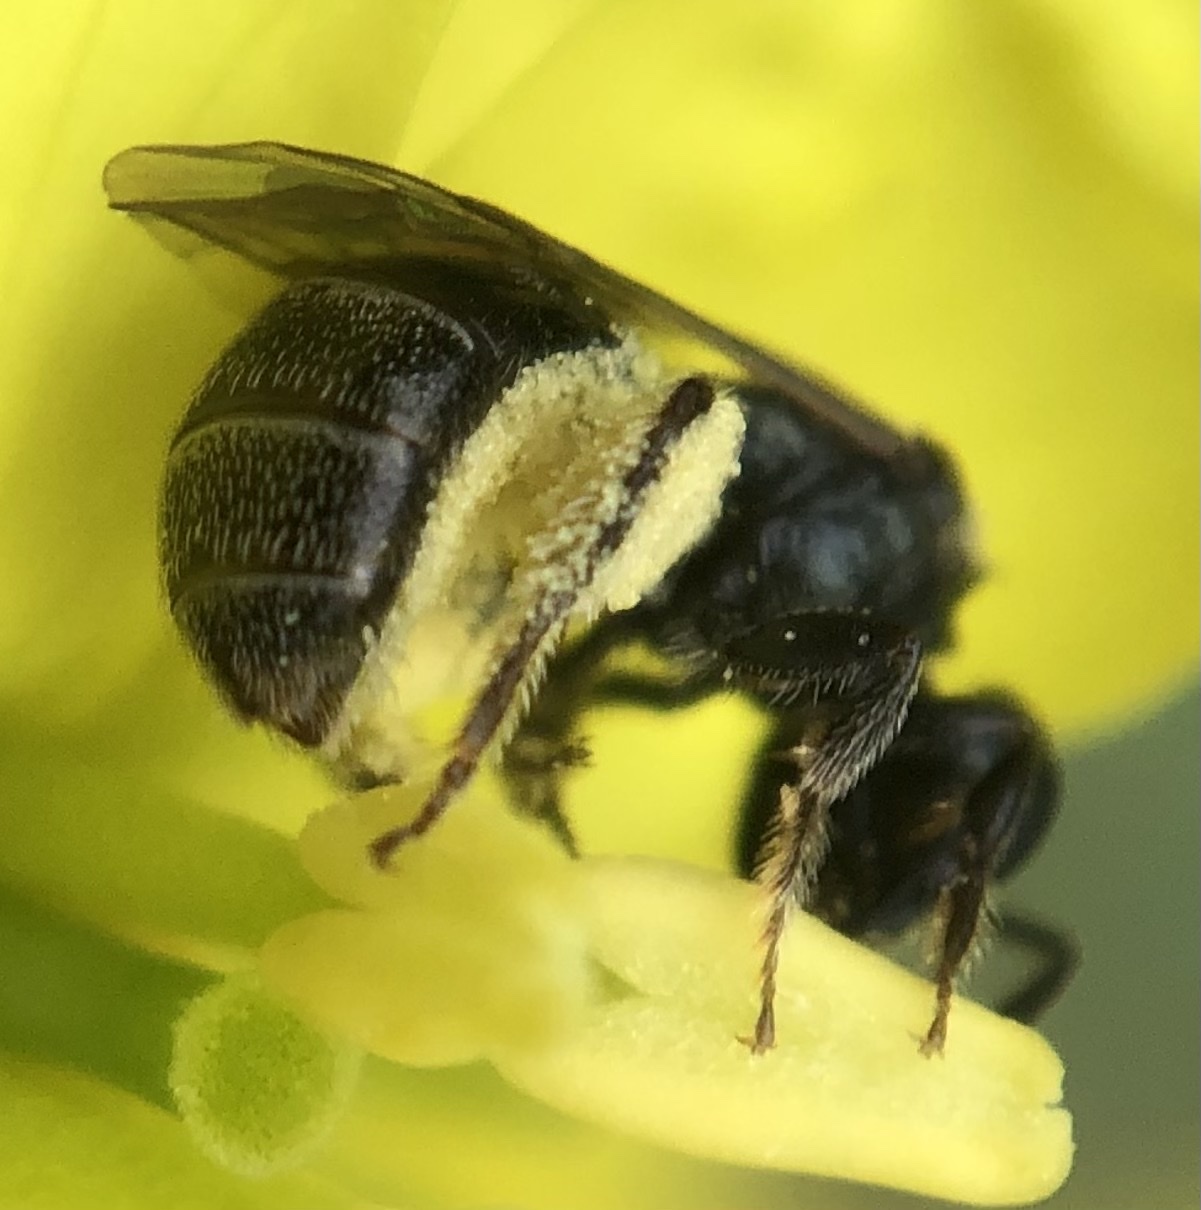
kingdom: Animalia
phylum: Arthropoda
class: Insecta
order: Hymenoptera
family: Halictidae
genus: Lasioglossum
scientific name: Lasioglossum imitatum
